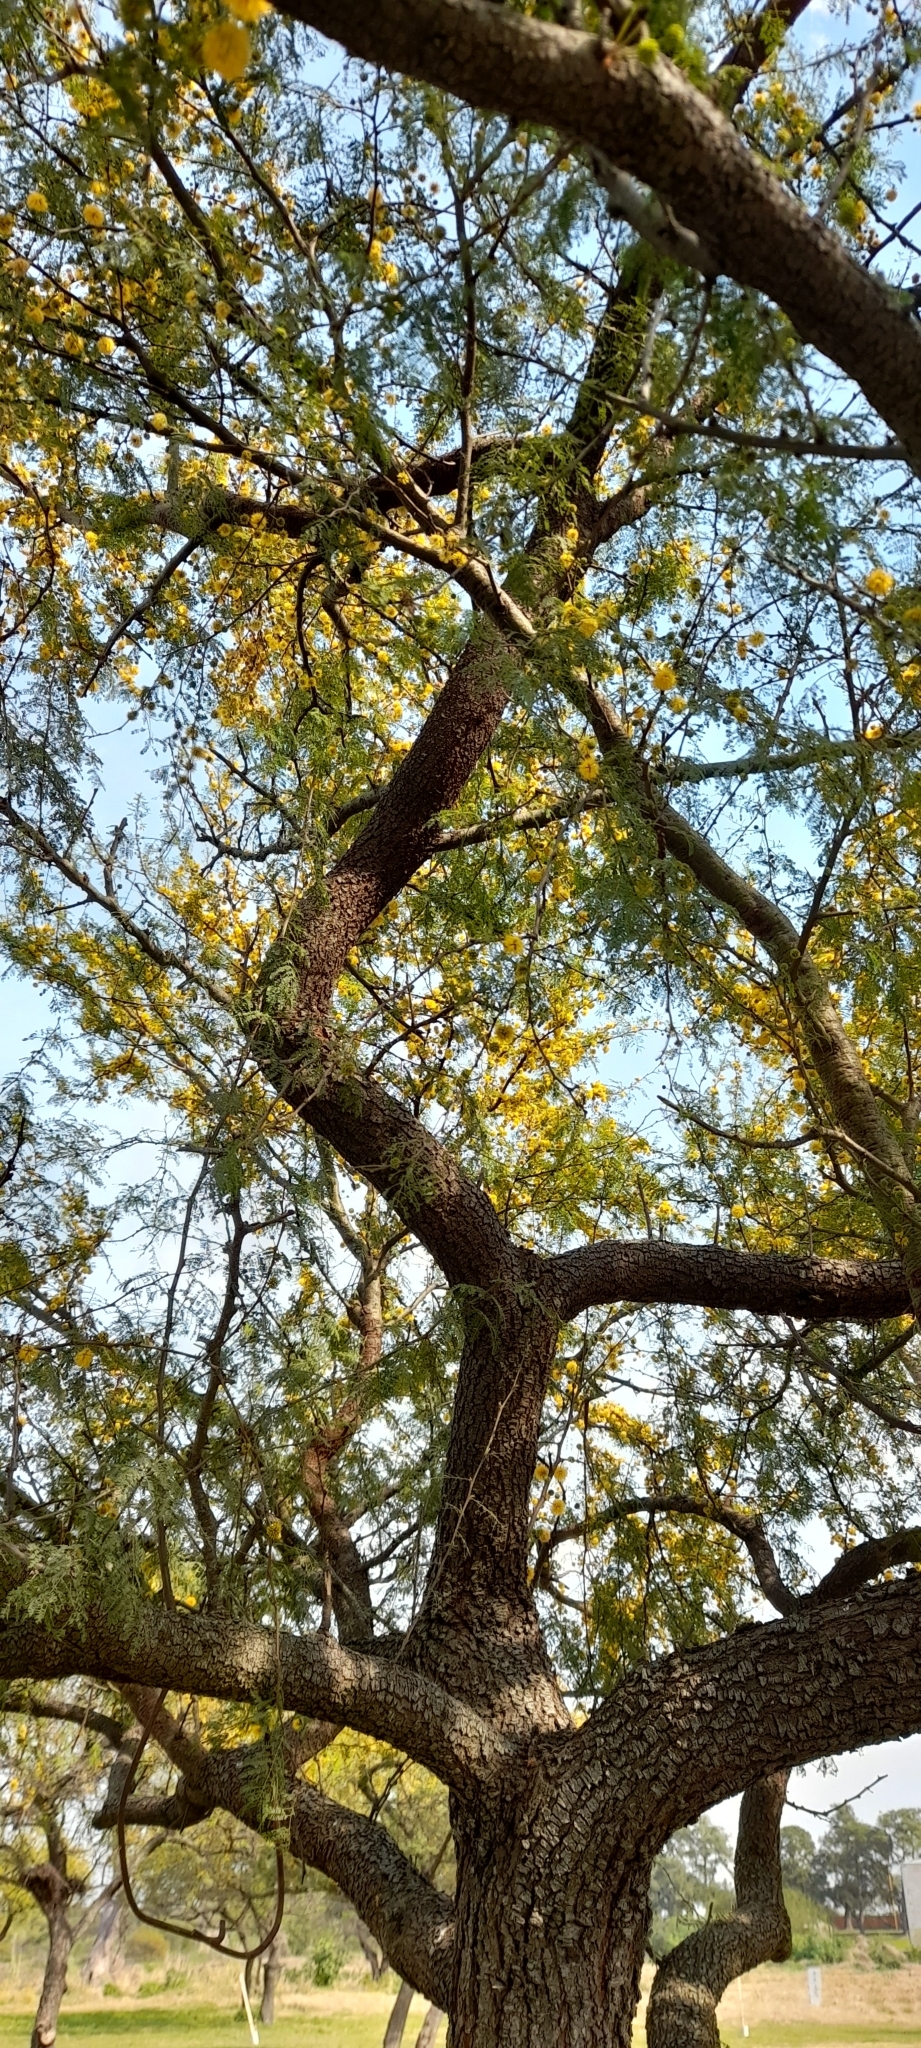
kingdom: Plantae
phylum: Tracheophyta
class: Magnoliopsida
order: Fabales
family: Fabaceae
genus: Vachellia
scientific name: Vachellia caven
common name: Roman cassie
